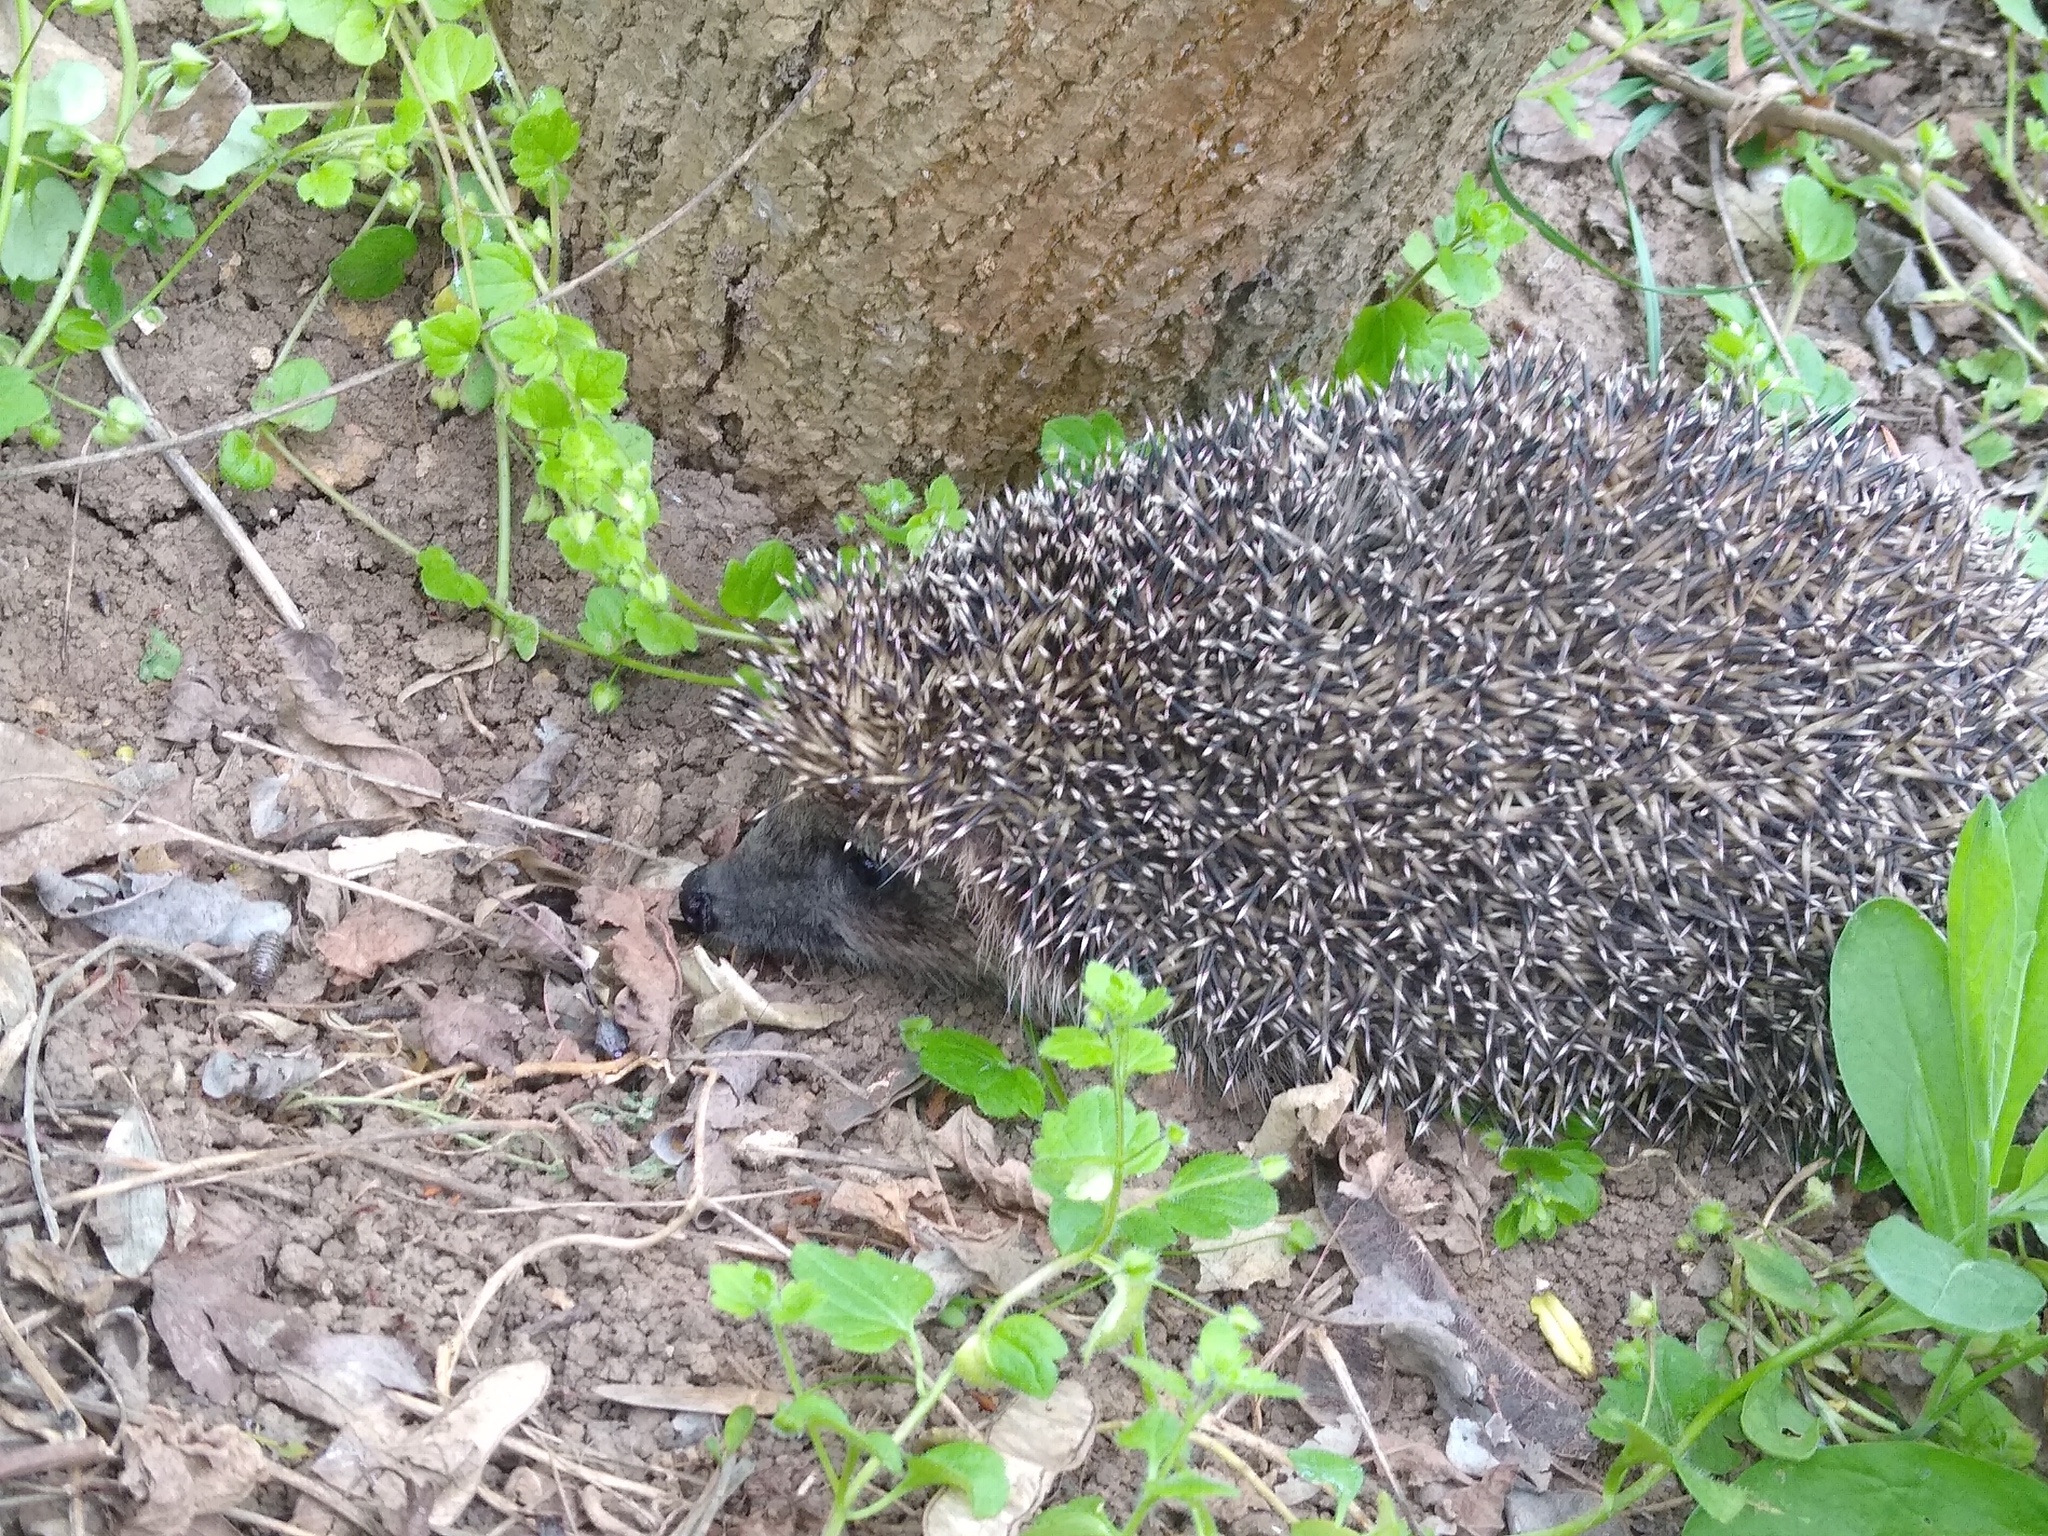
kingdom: Animalia
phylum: Chordata
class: Mammalia
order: Erinaceomorpha
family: Erinaceidae
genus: Erinaceus
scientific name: Erinaceus roumanicus
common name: Northern white-breasted hedgehog
